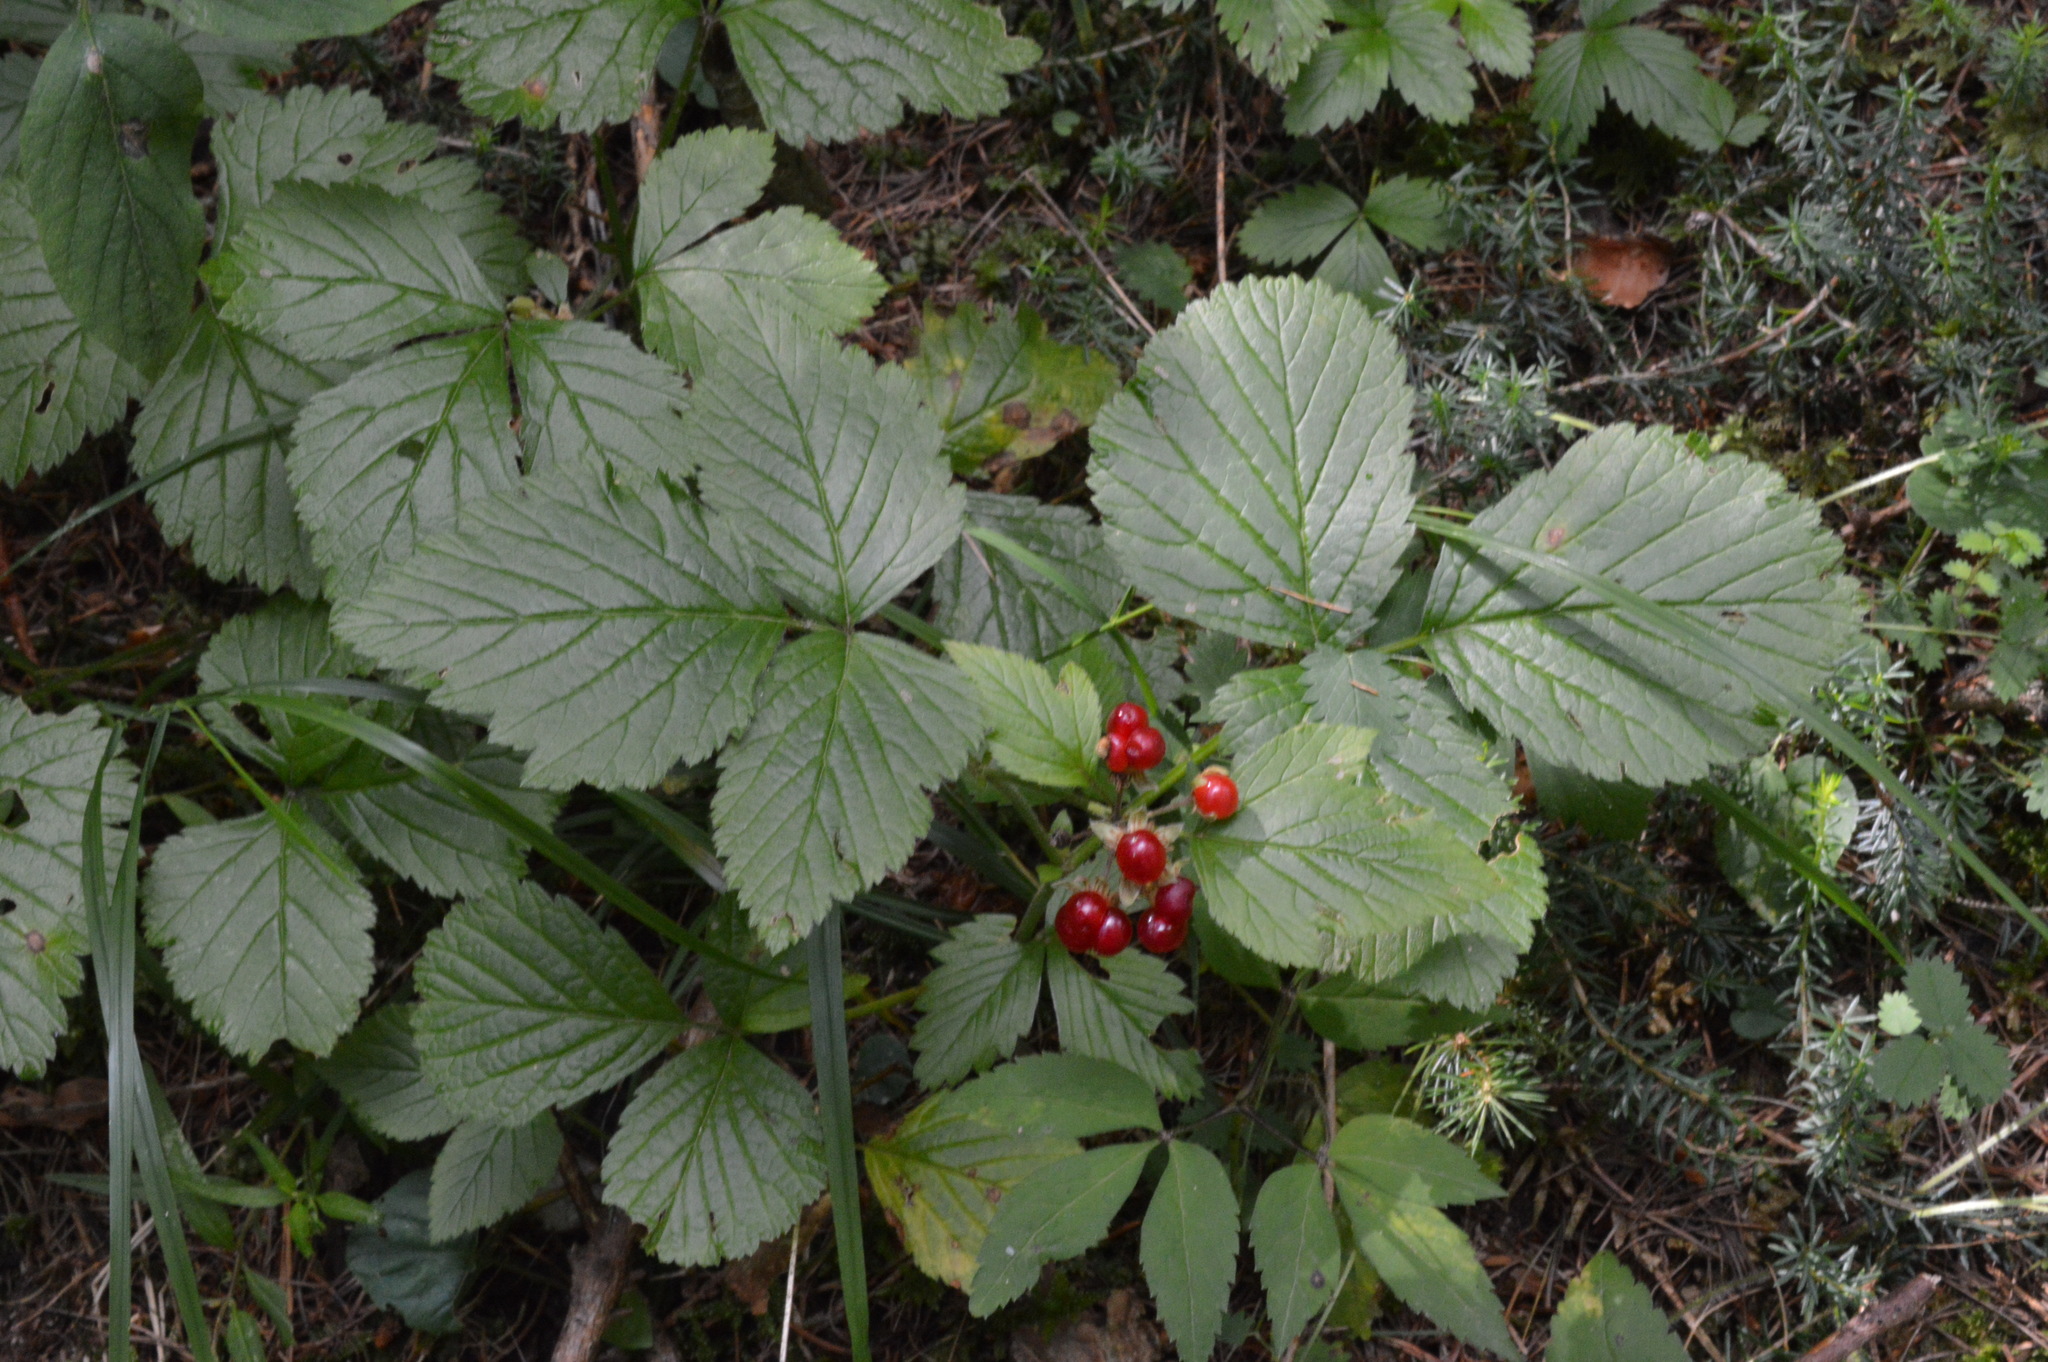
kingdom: Plantae
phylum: Tracheophyta
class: Magnoliopsida
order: Rosales
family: Rosaceae
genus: Rubus
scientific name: Rubus saxatilis
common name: Stone bramble
